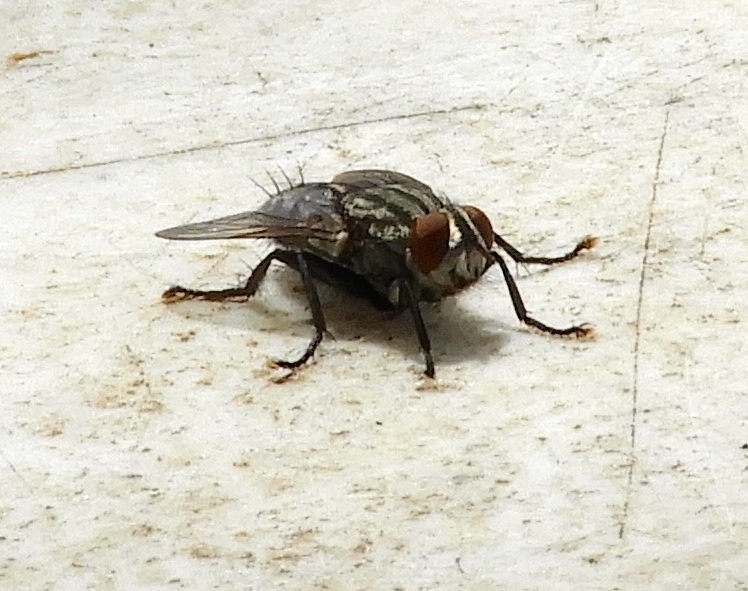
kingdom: Animalia
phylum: Arthropoda
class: Insecta
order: Diptera
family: Sarcophagidae
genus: Sarcophaga
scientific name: Sarcophaga
